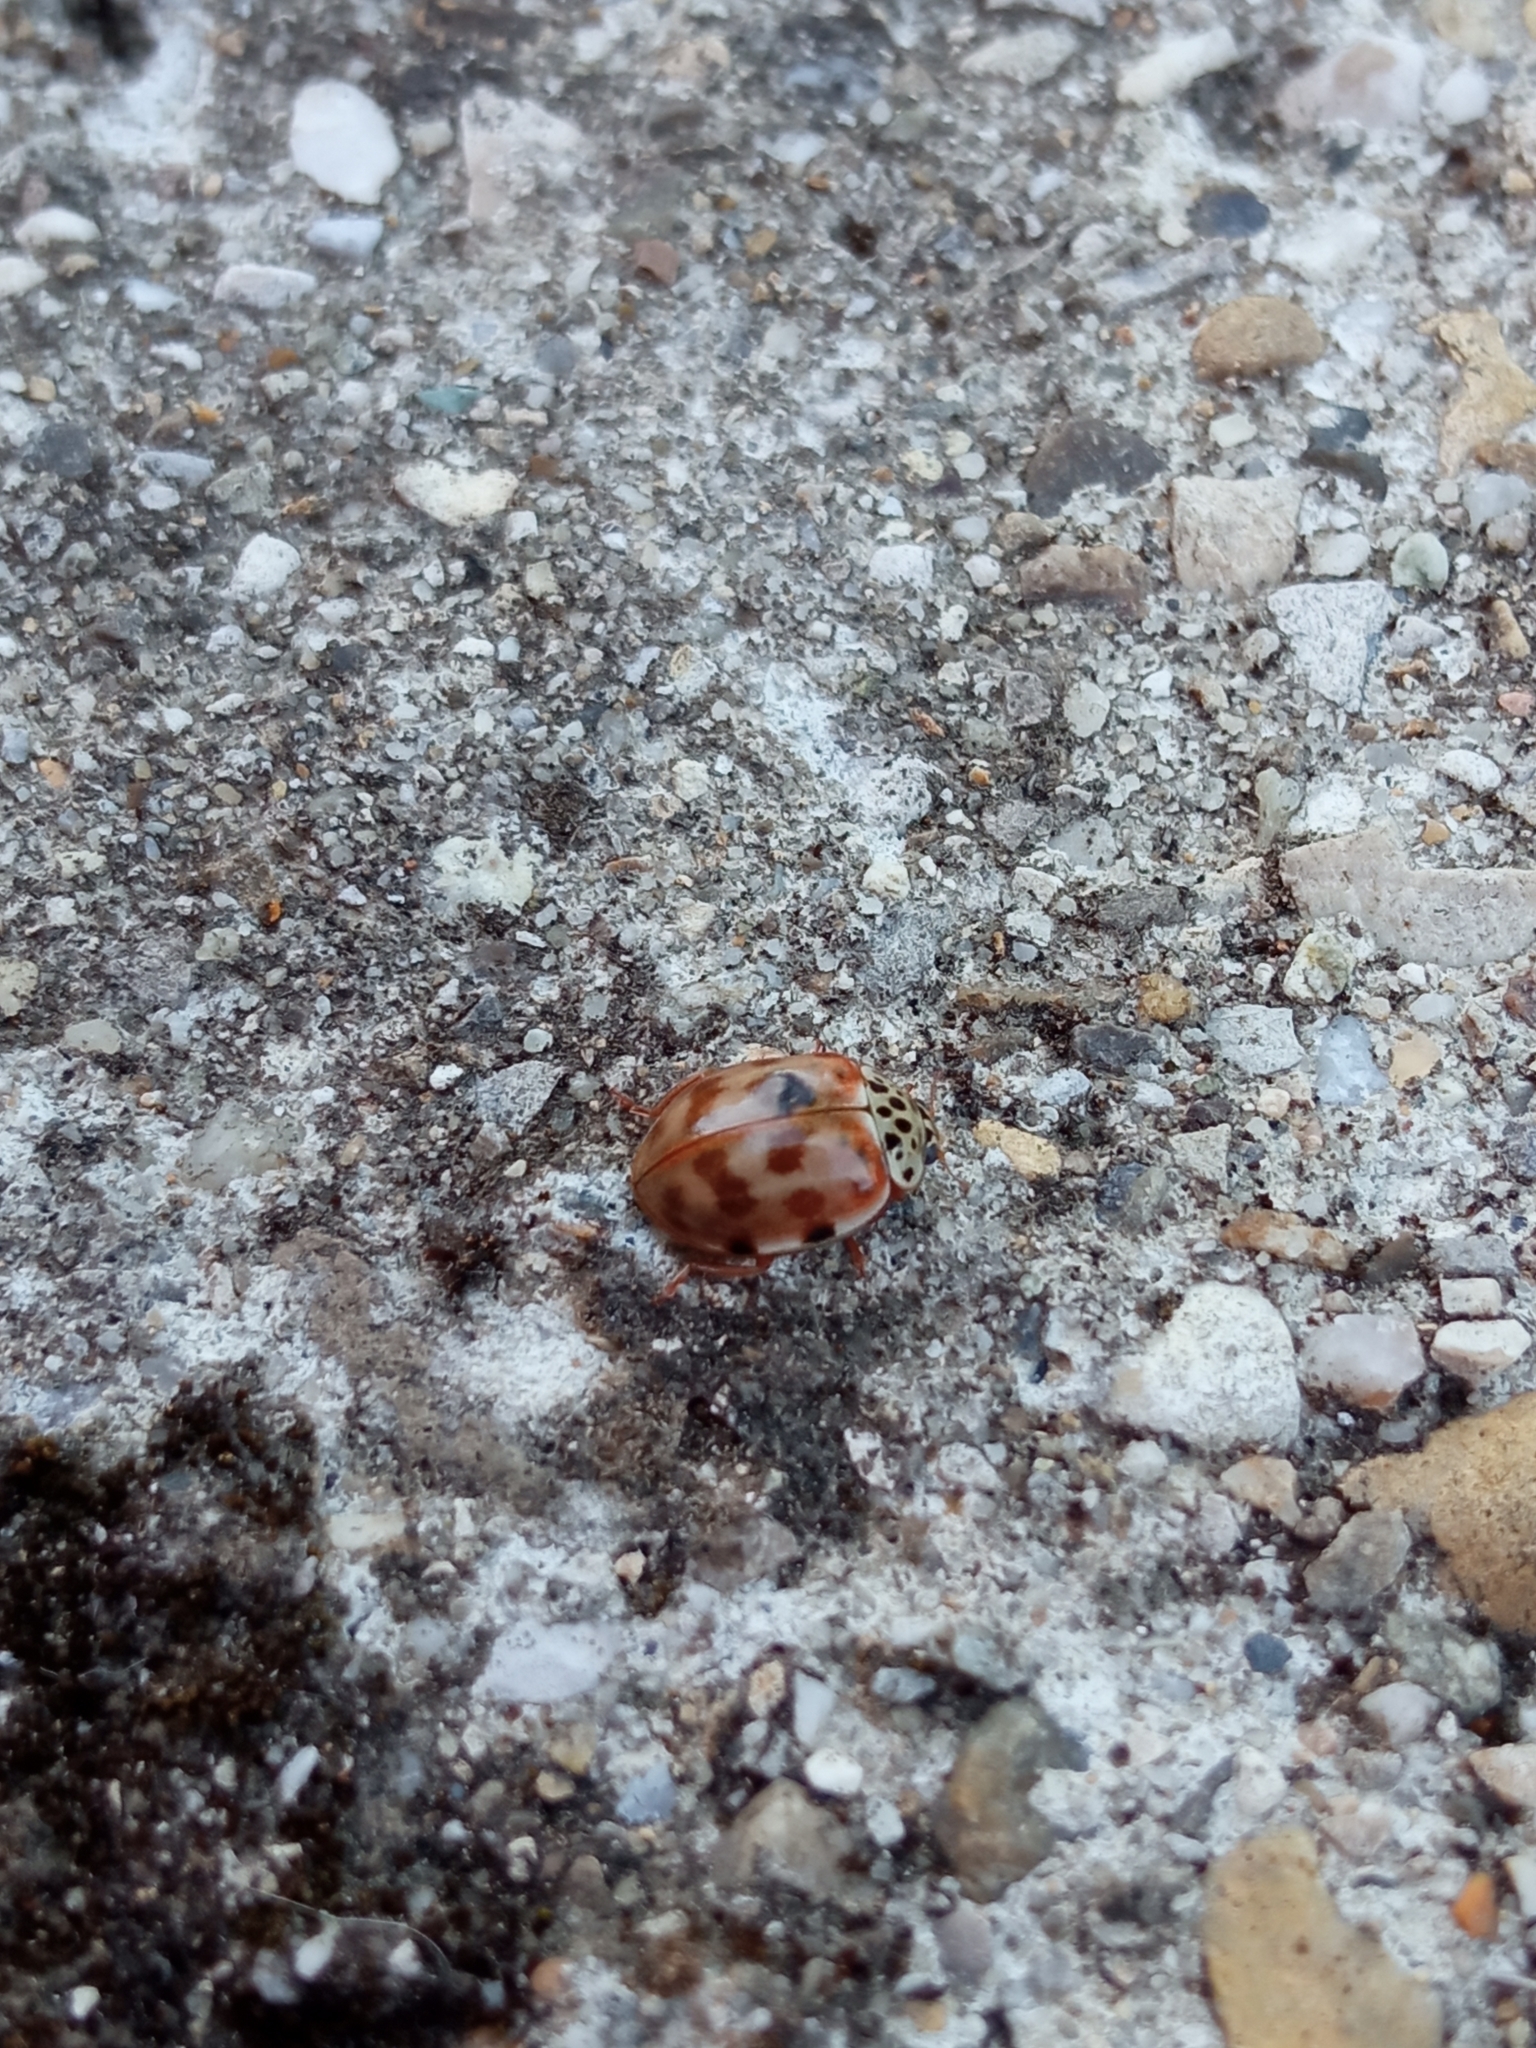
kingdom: Animalia
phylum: Arthropoda
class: Insecta
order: Coleoptera
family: Coccinellidae
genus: Harmonia
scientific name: Harmonia quadripunctata
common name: Cream-streaked ladybird
